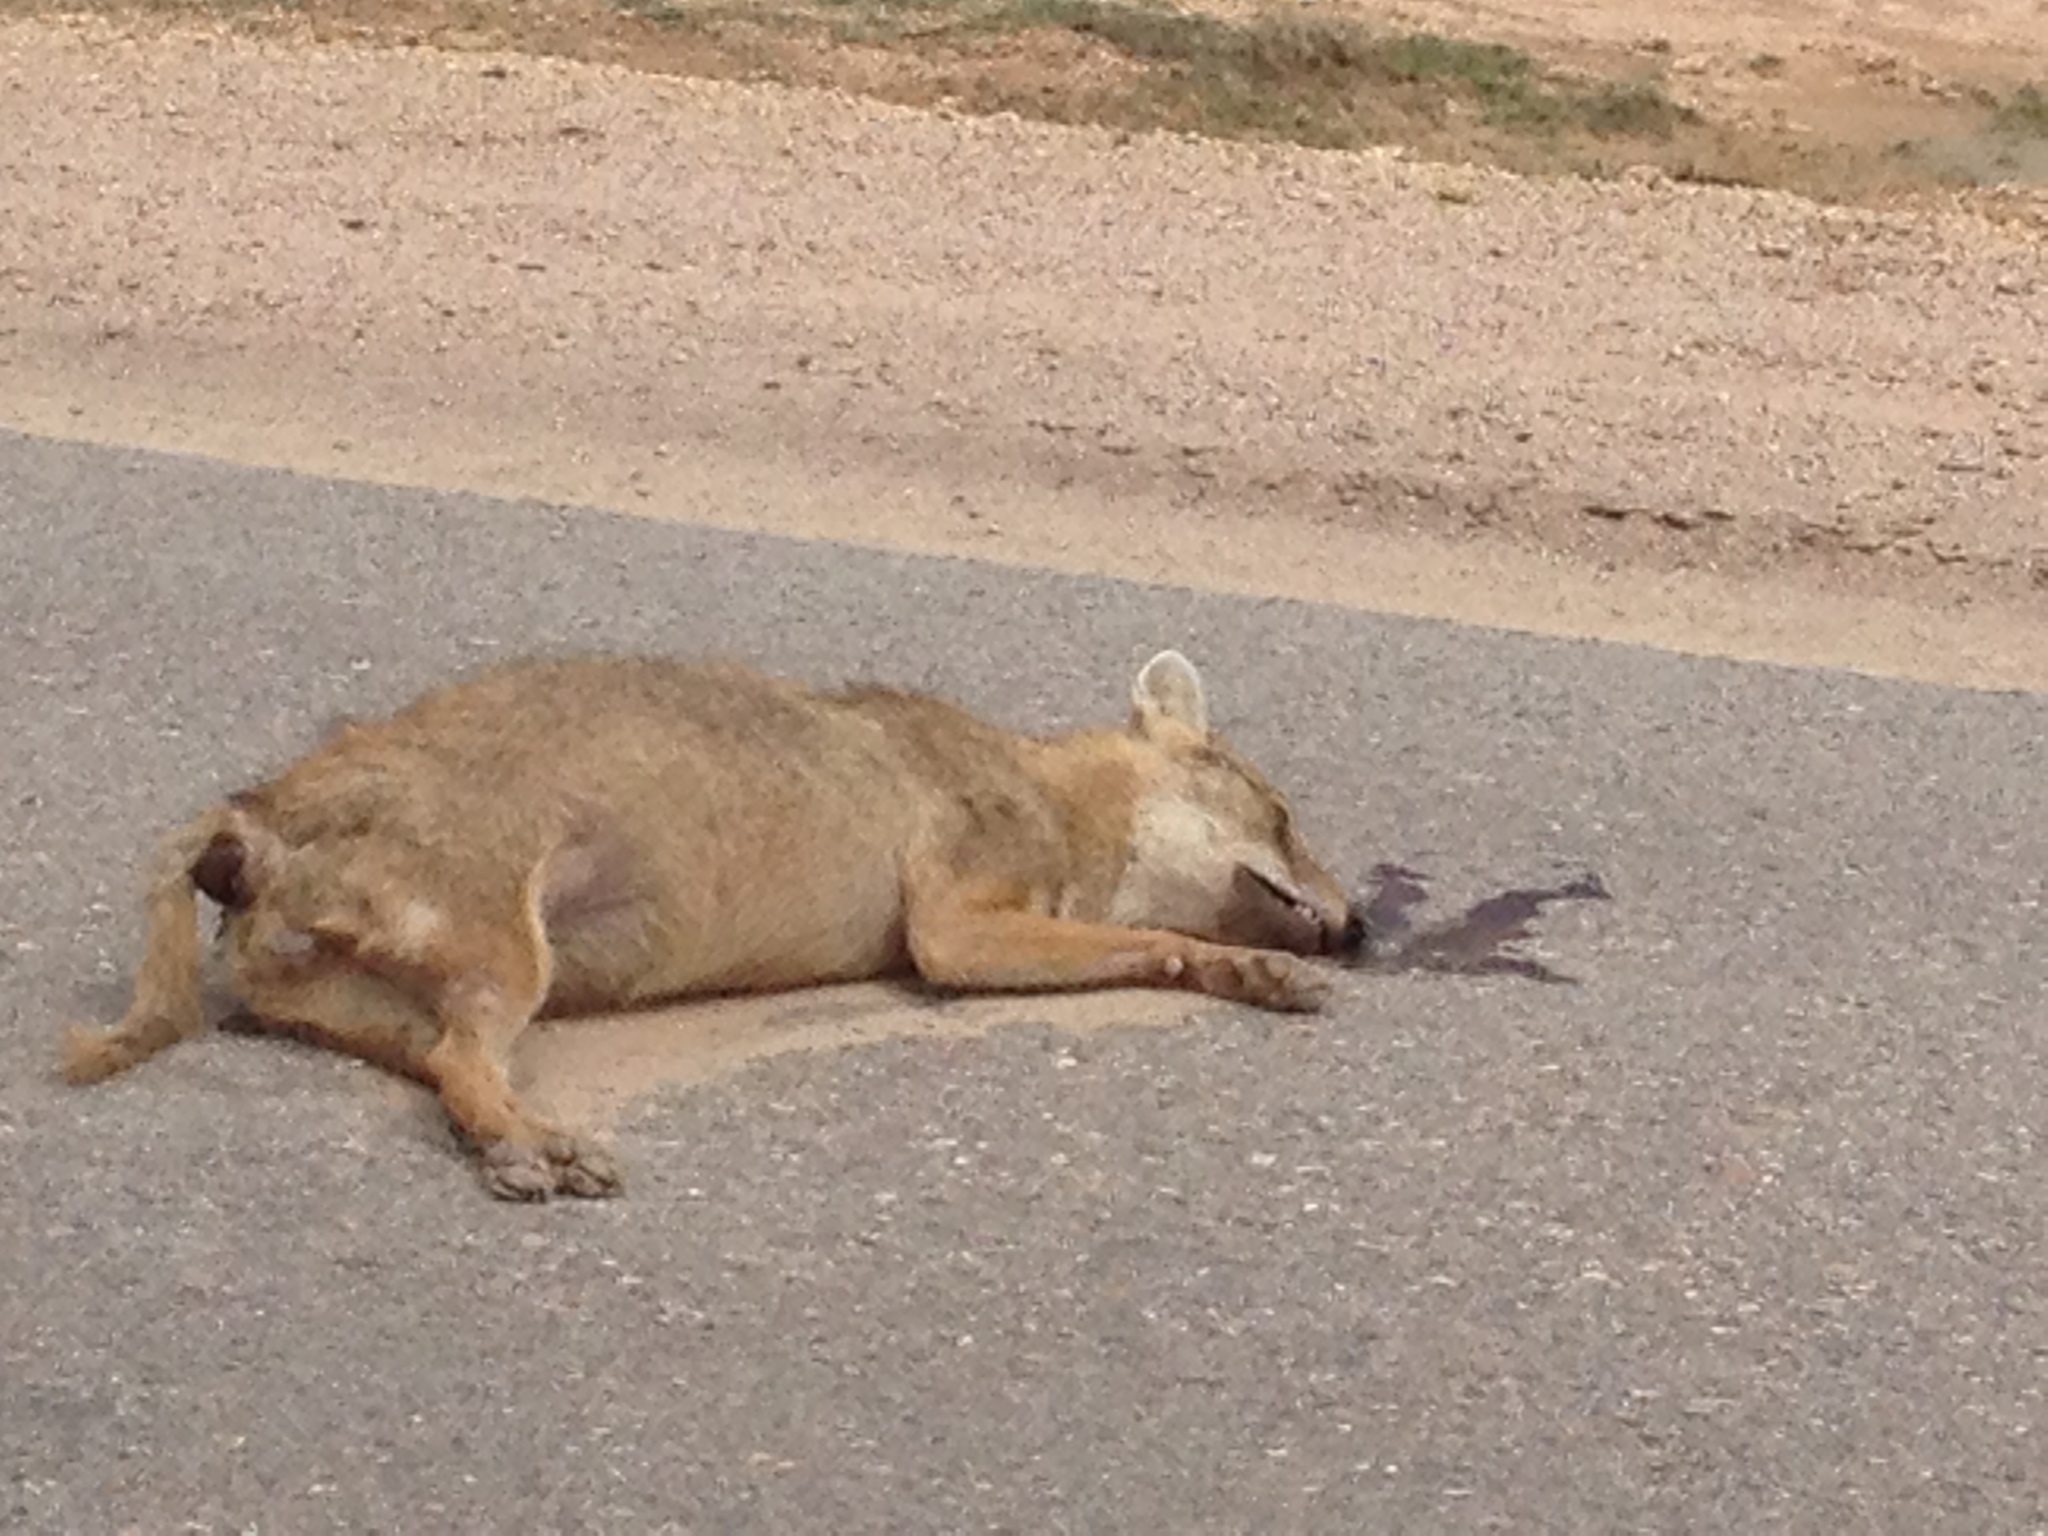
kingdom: Animalia
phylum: Chordata
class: Mammalia
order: Carnivora
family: Canidae
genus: Canis
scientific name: Canis aureus
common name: Golden jackal
